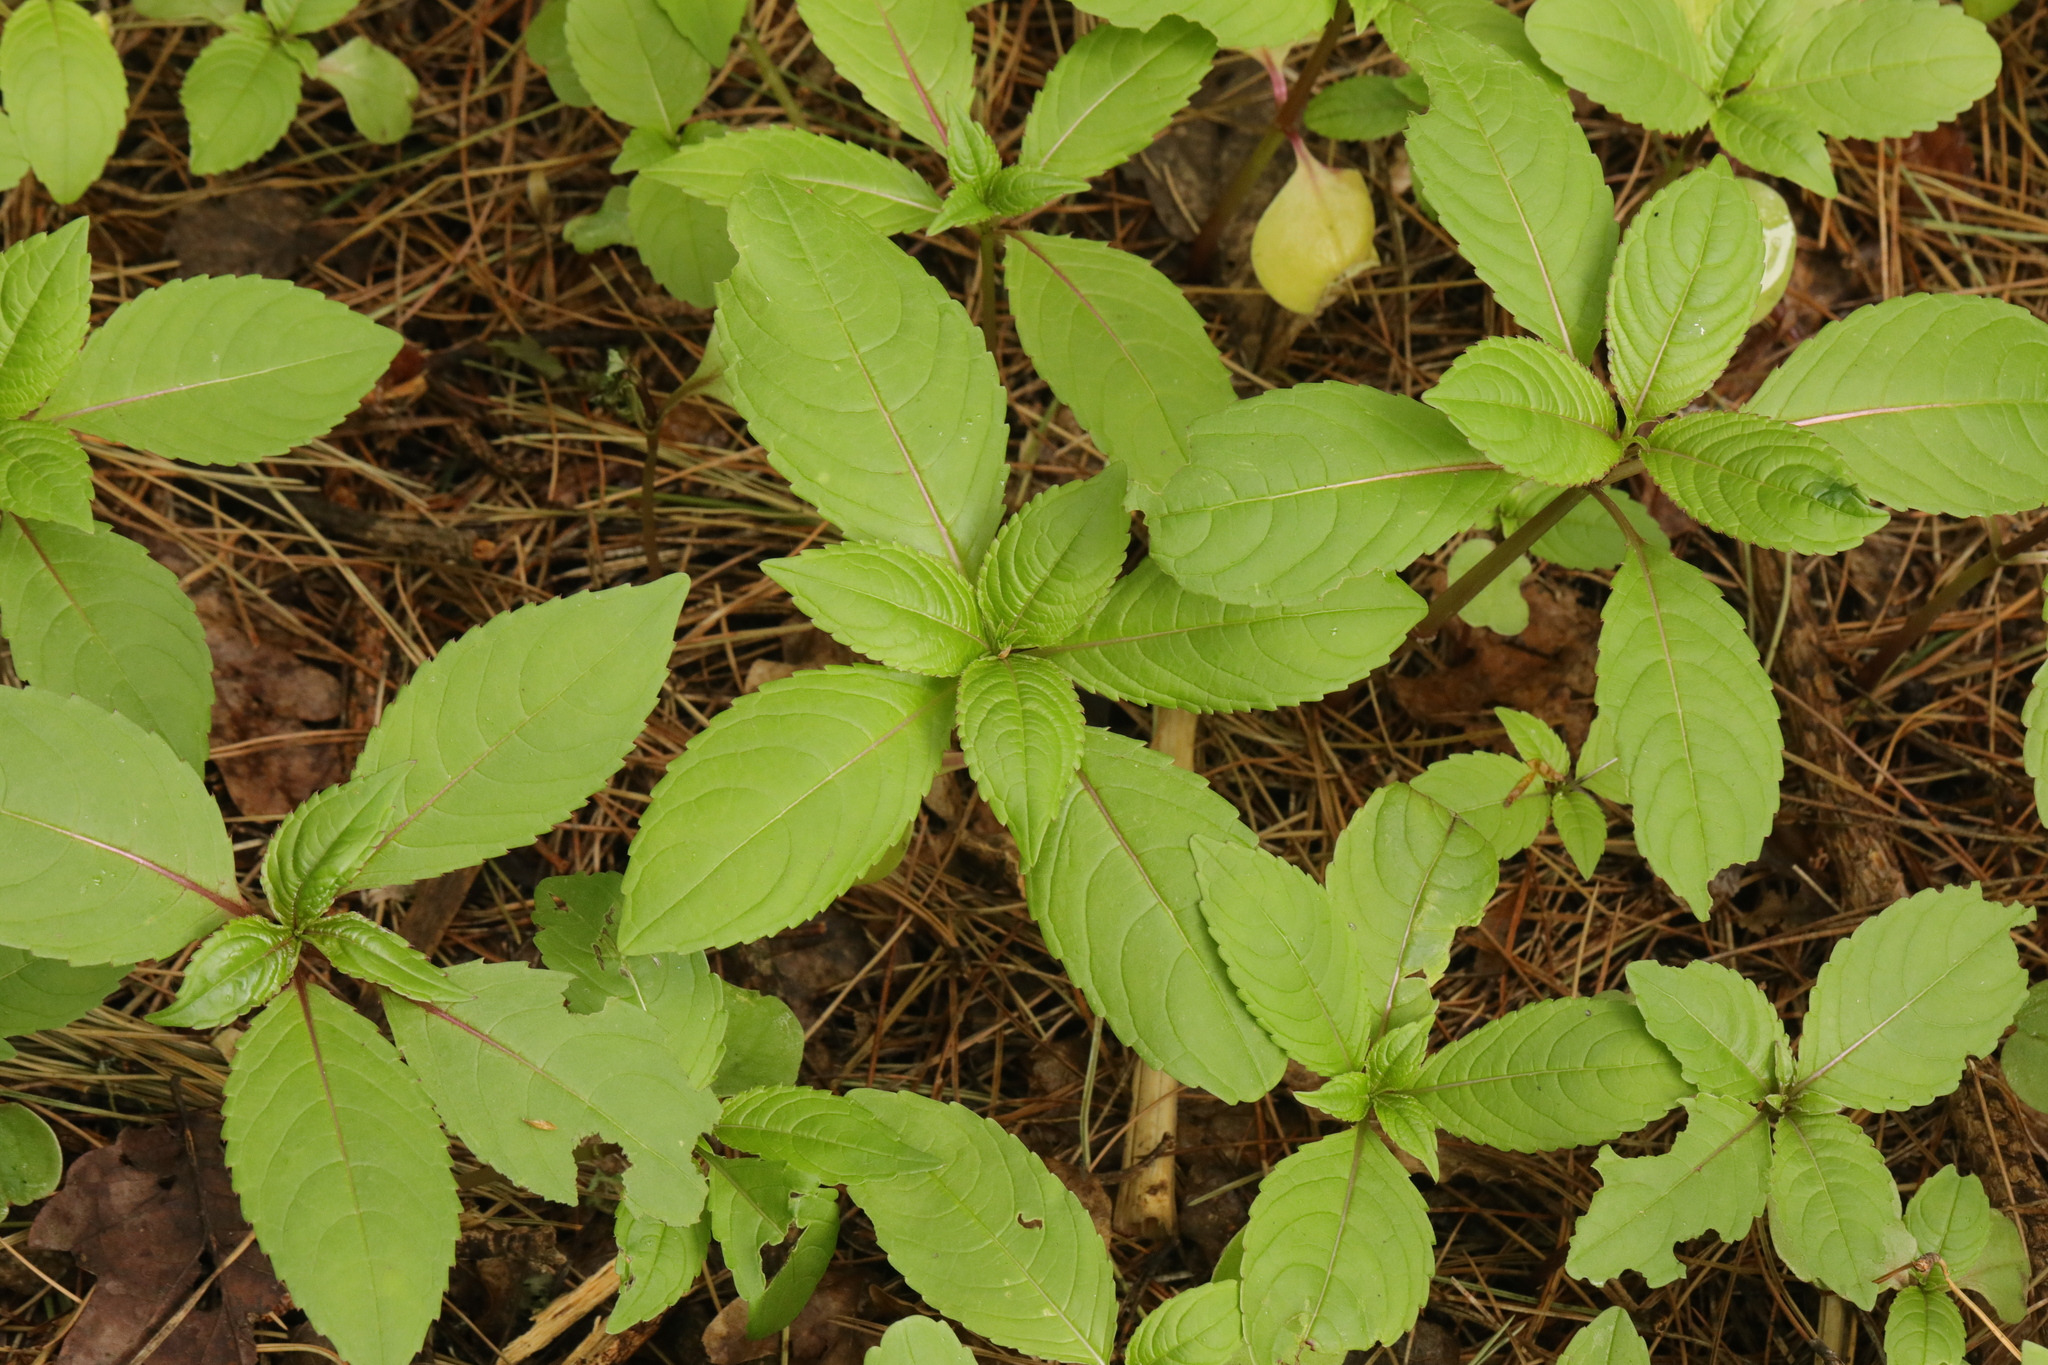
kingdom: Plantae
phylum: Tracheophyta
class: Magnoliopsida
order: Ericales
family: Balsaminaceae
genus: Impatiens
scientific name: Impatiens glandulifera
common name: Himalayan balsam
